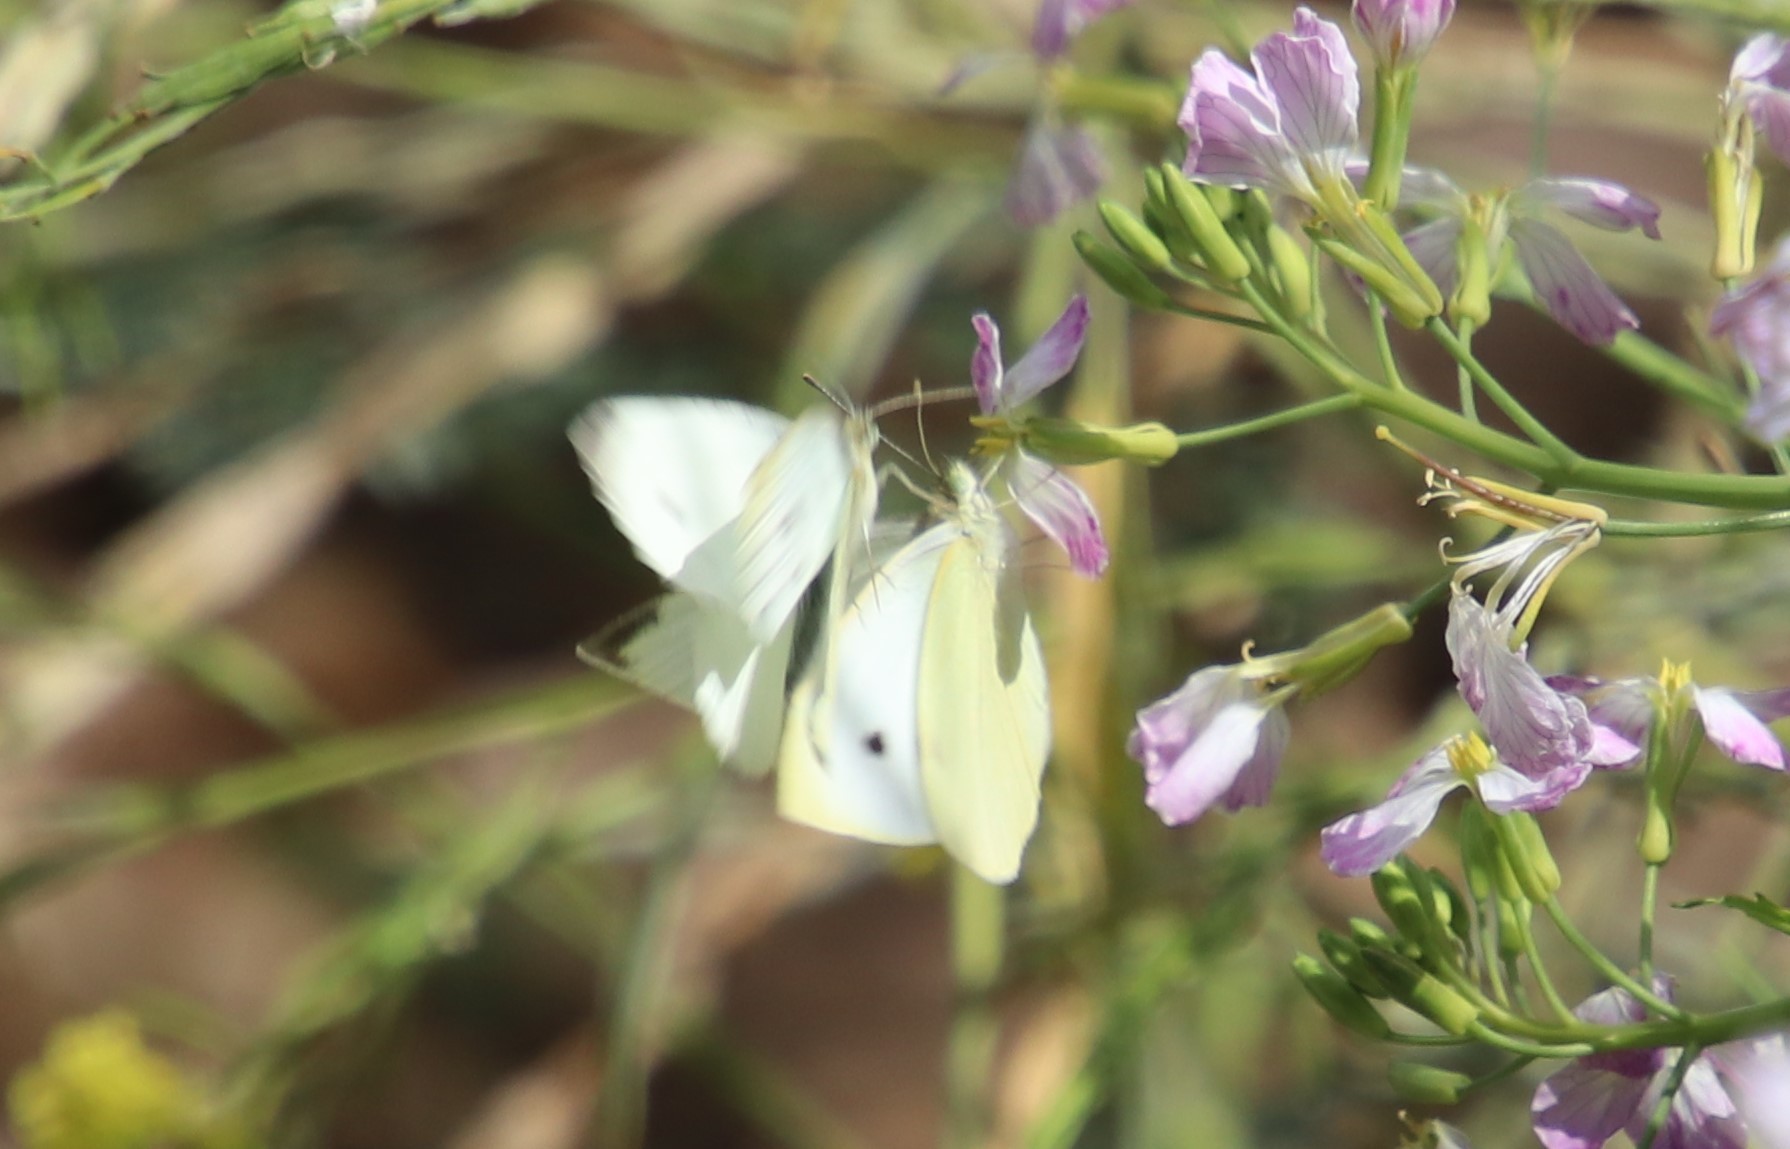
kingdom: Animalia
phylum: Arthropoda
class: Insecta
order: Lepidoptera
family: Pieridae
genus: Pieris
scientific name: Pieris rapae
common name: Small white
